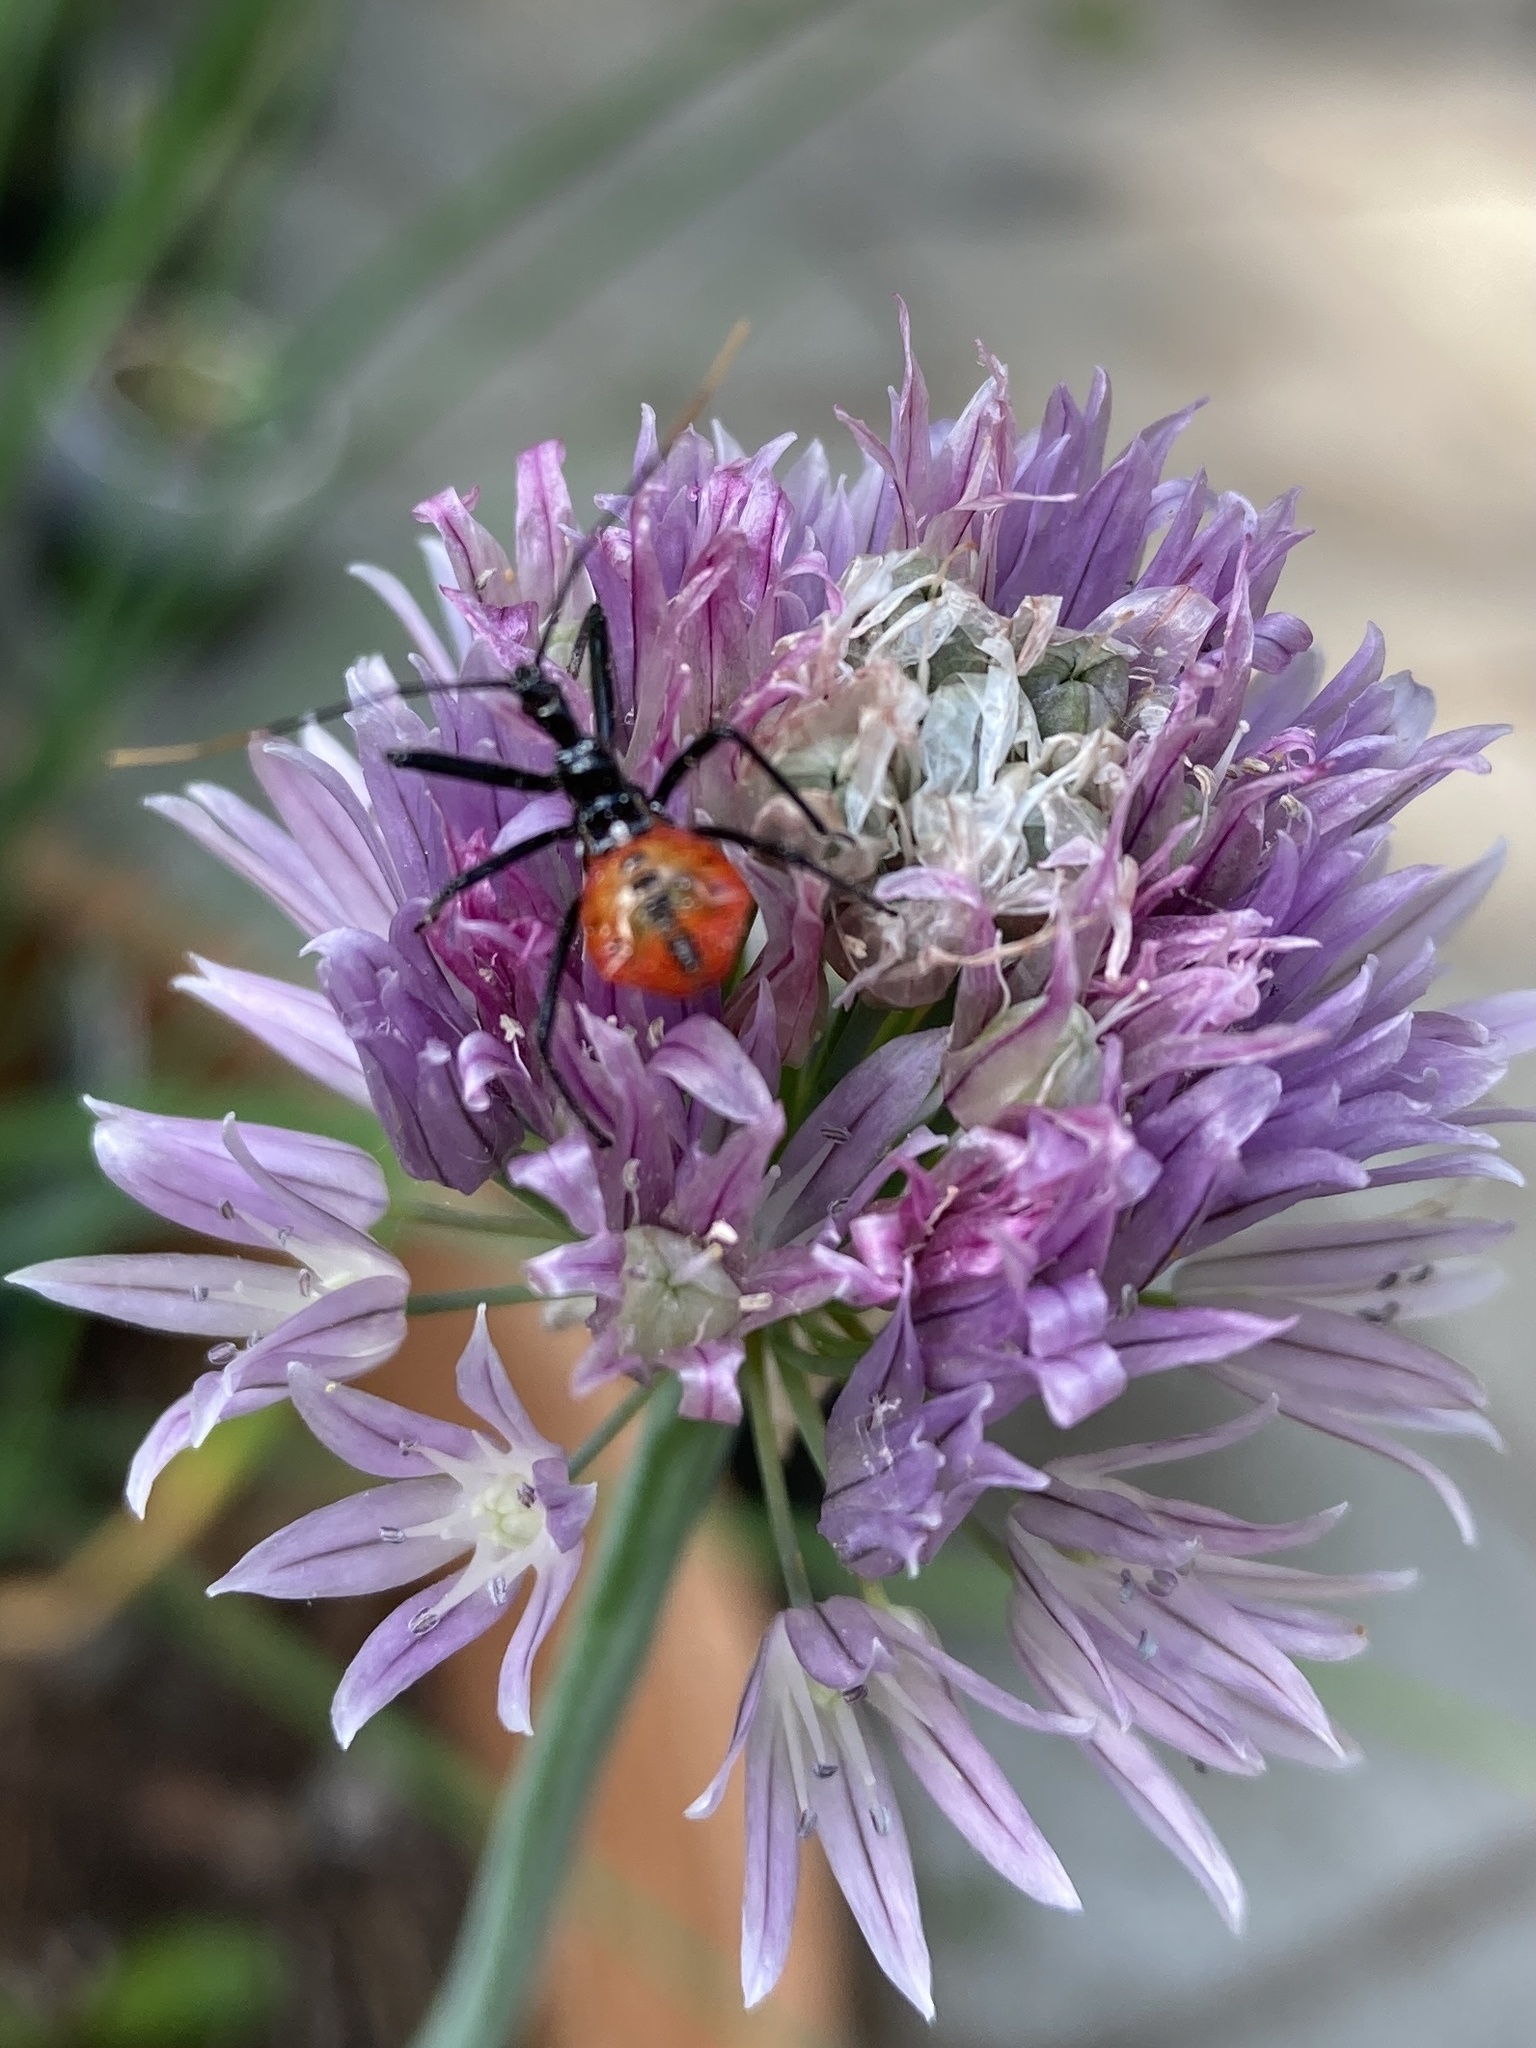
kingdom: Animalia
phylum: Arthropoda
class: Insecta
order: Hemiptera
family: Reduviidae
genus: Arilus
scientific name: Arilus cristatus
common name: North american wheel bug
